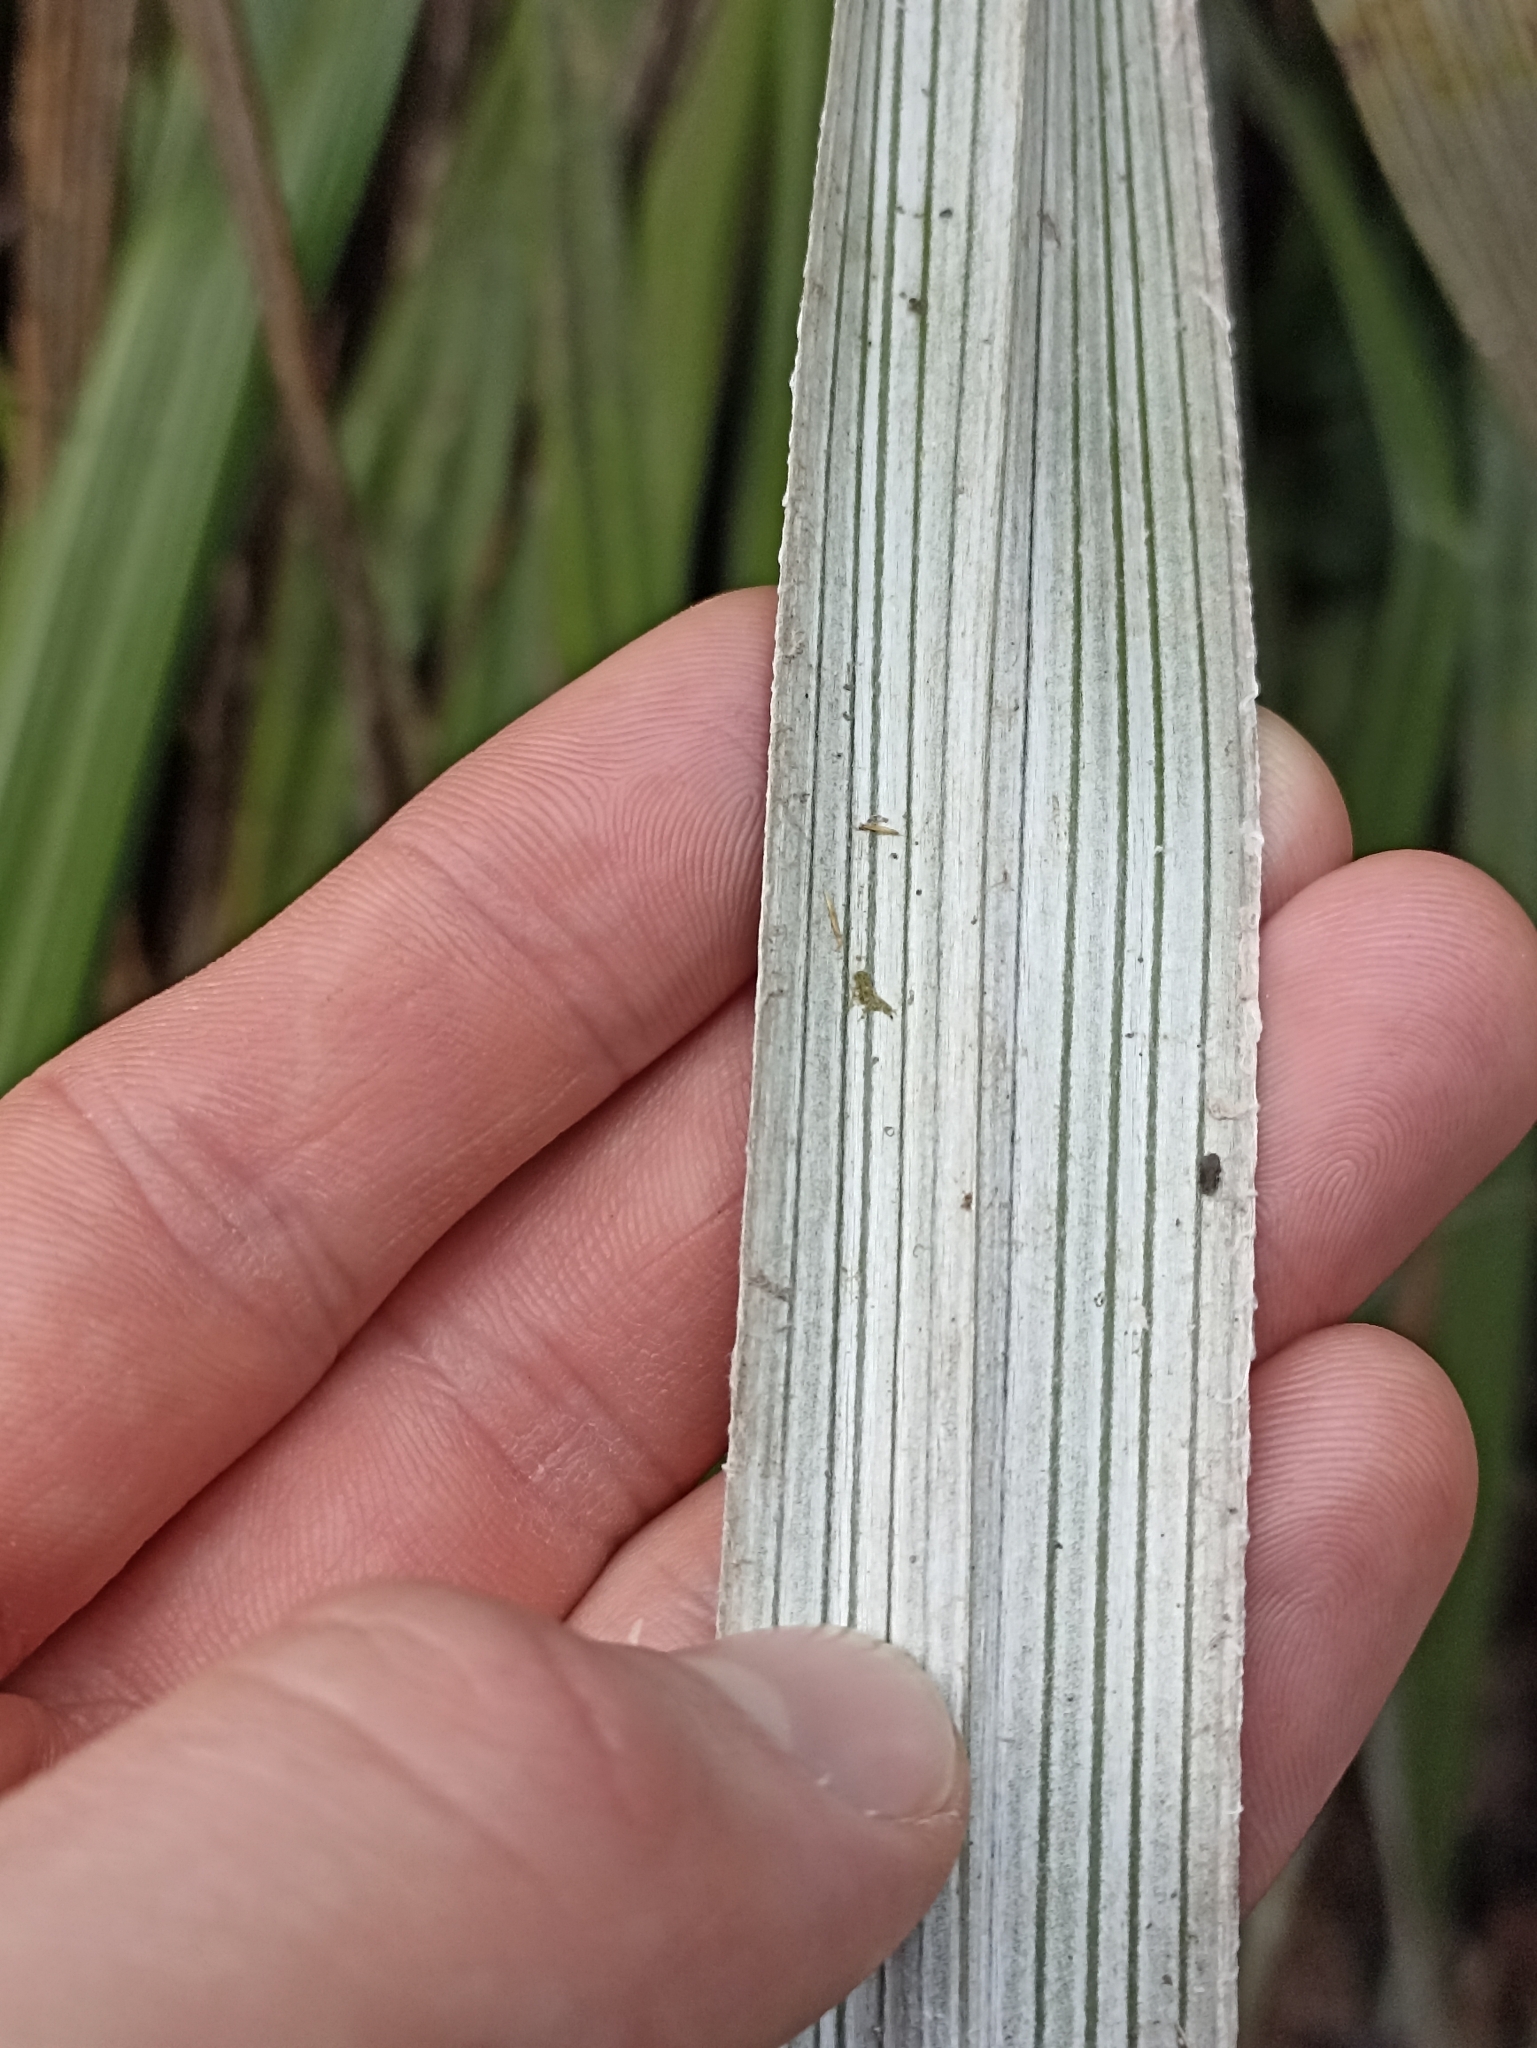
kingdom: Plantae
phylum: Tracheophyta
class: Liliopsida
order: Asparagales
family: Asteliaceae
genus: Astelia
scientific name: Astelia banksii
